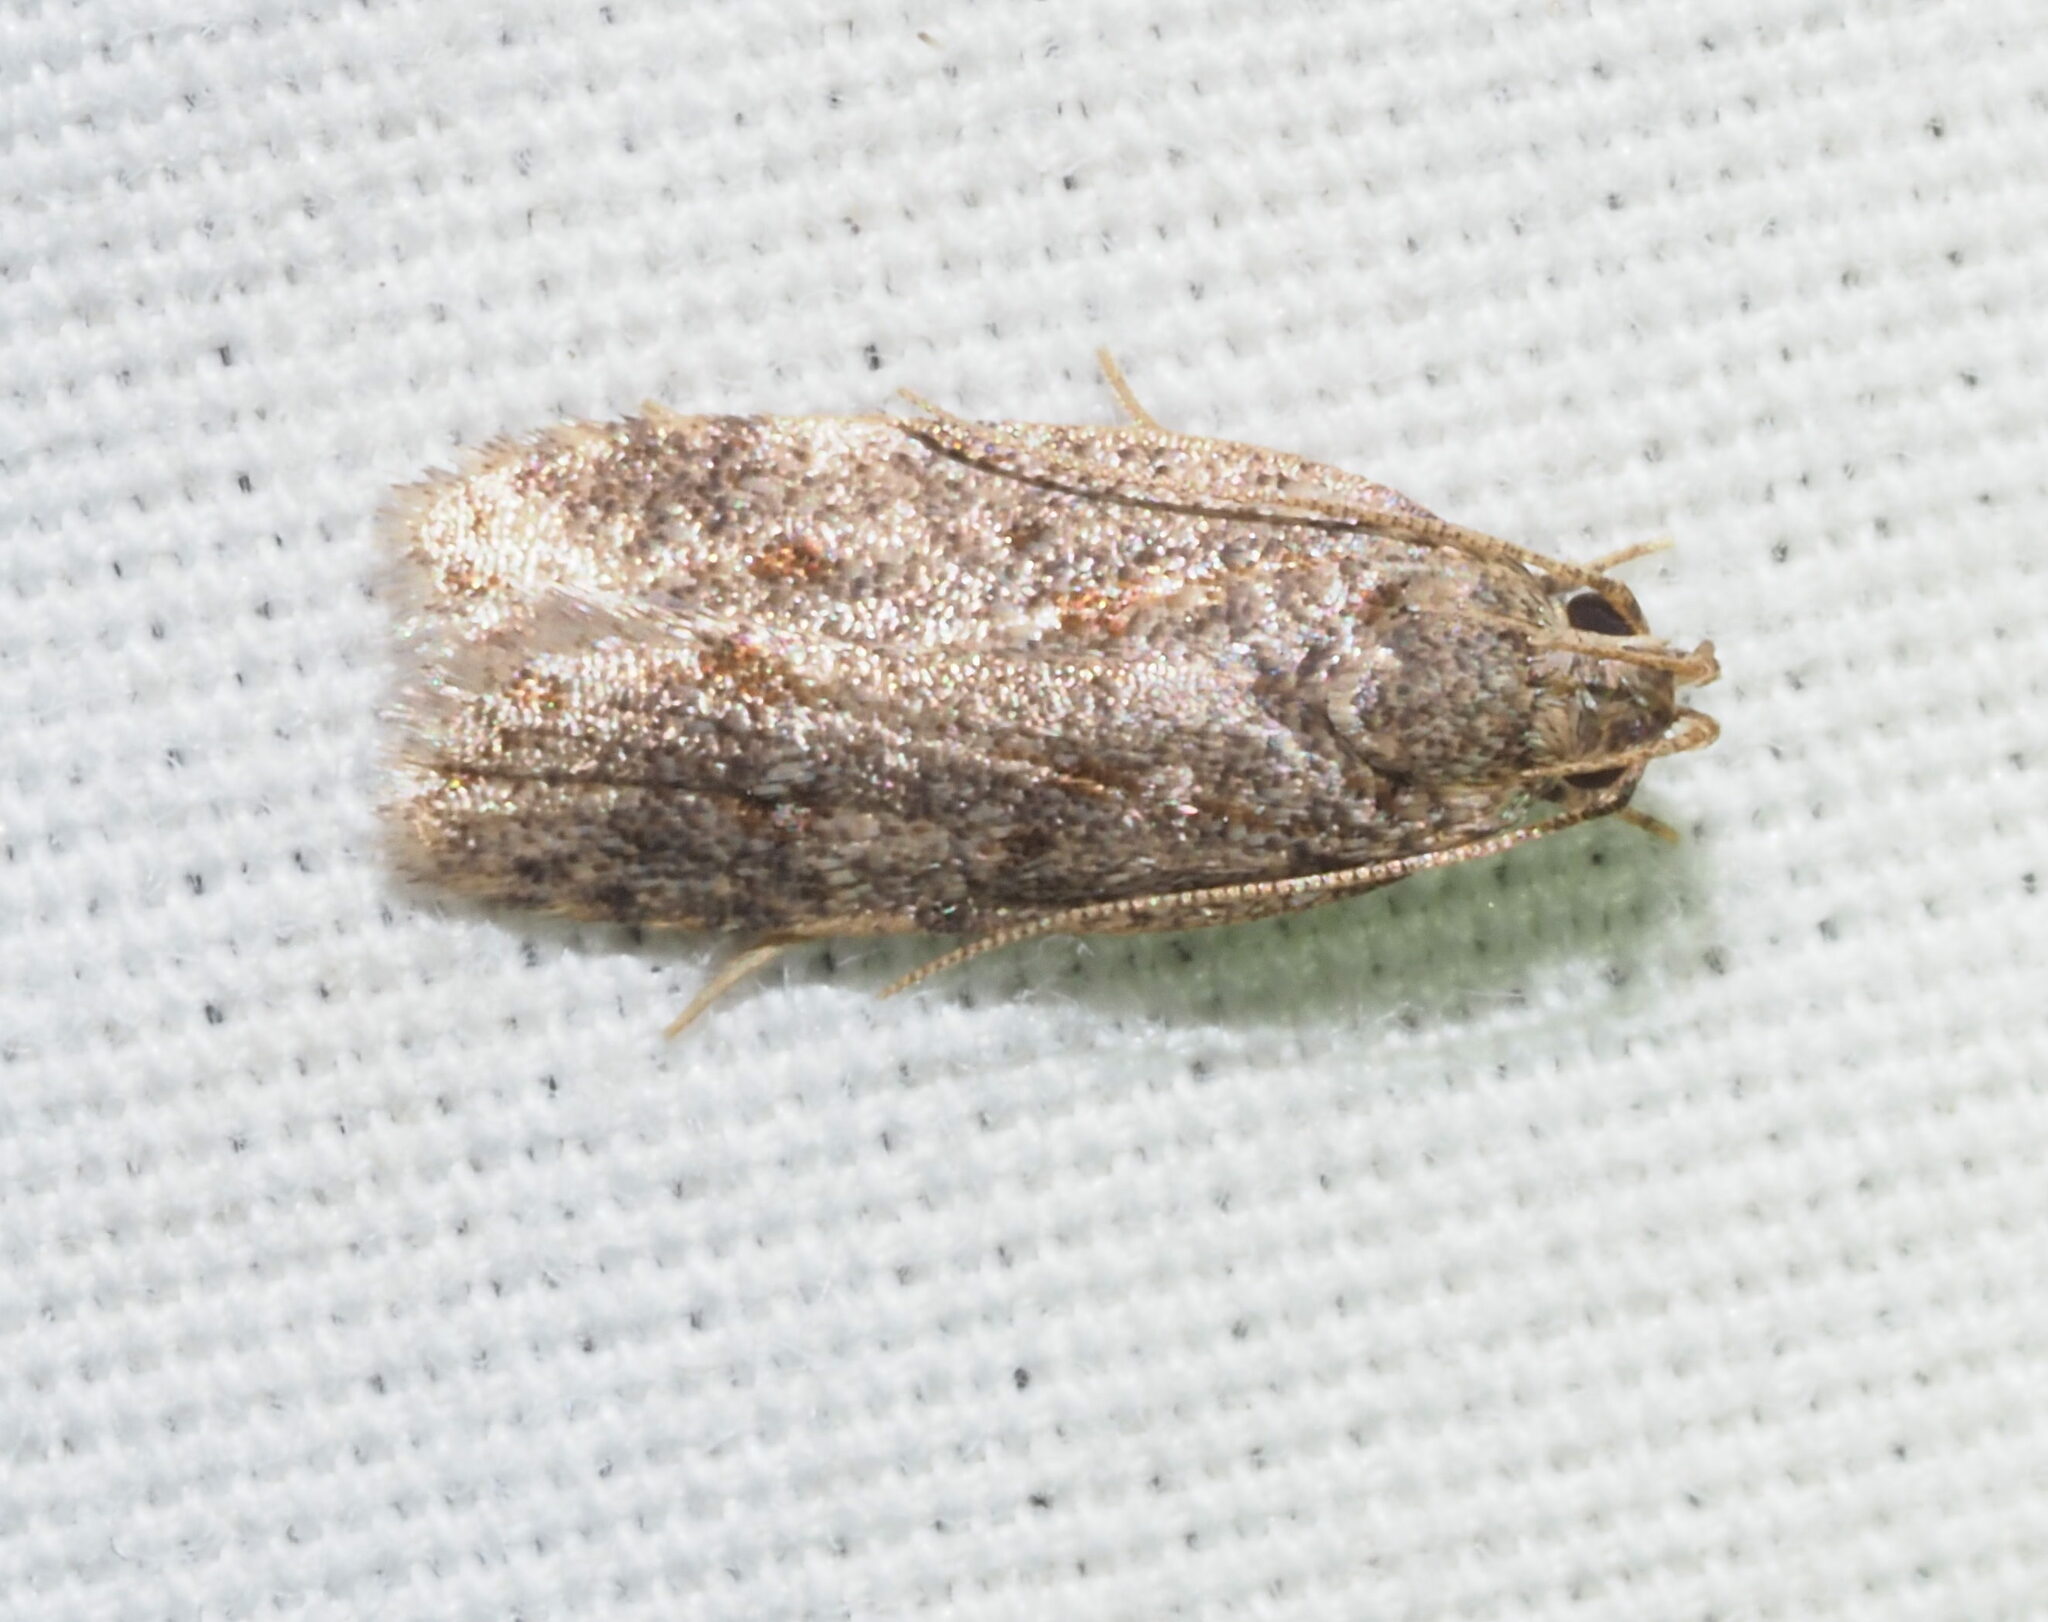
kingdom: Animalia
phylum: Arthropoda
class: Insecta
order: Lepidoptera
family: Autostichidae
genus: Stoeberhinus
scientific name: Stoeberhinus testaceus
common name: Moth
